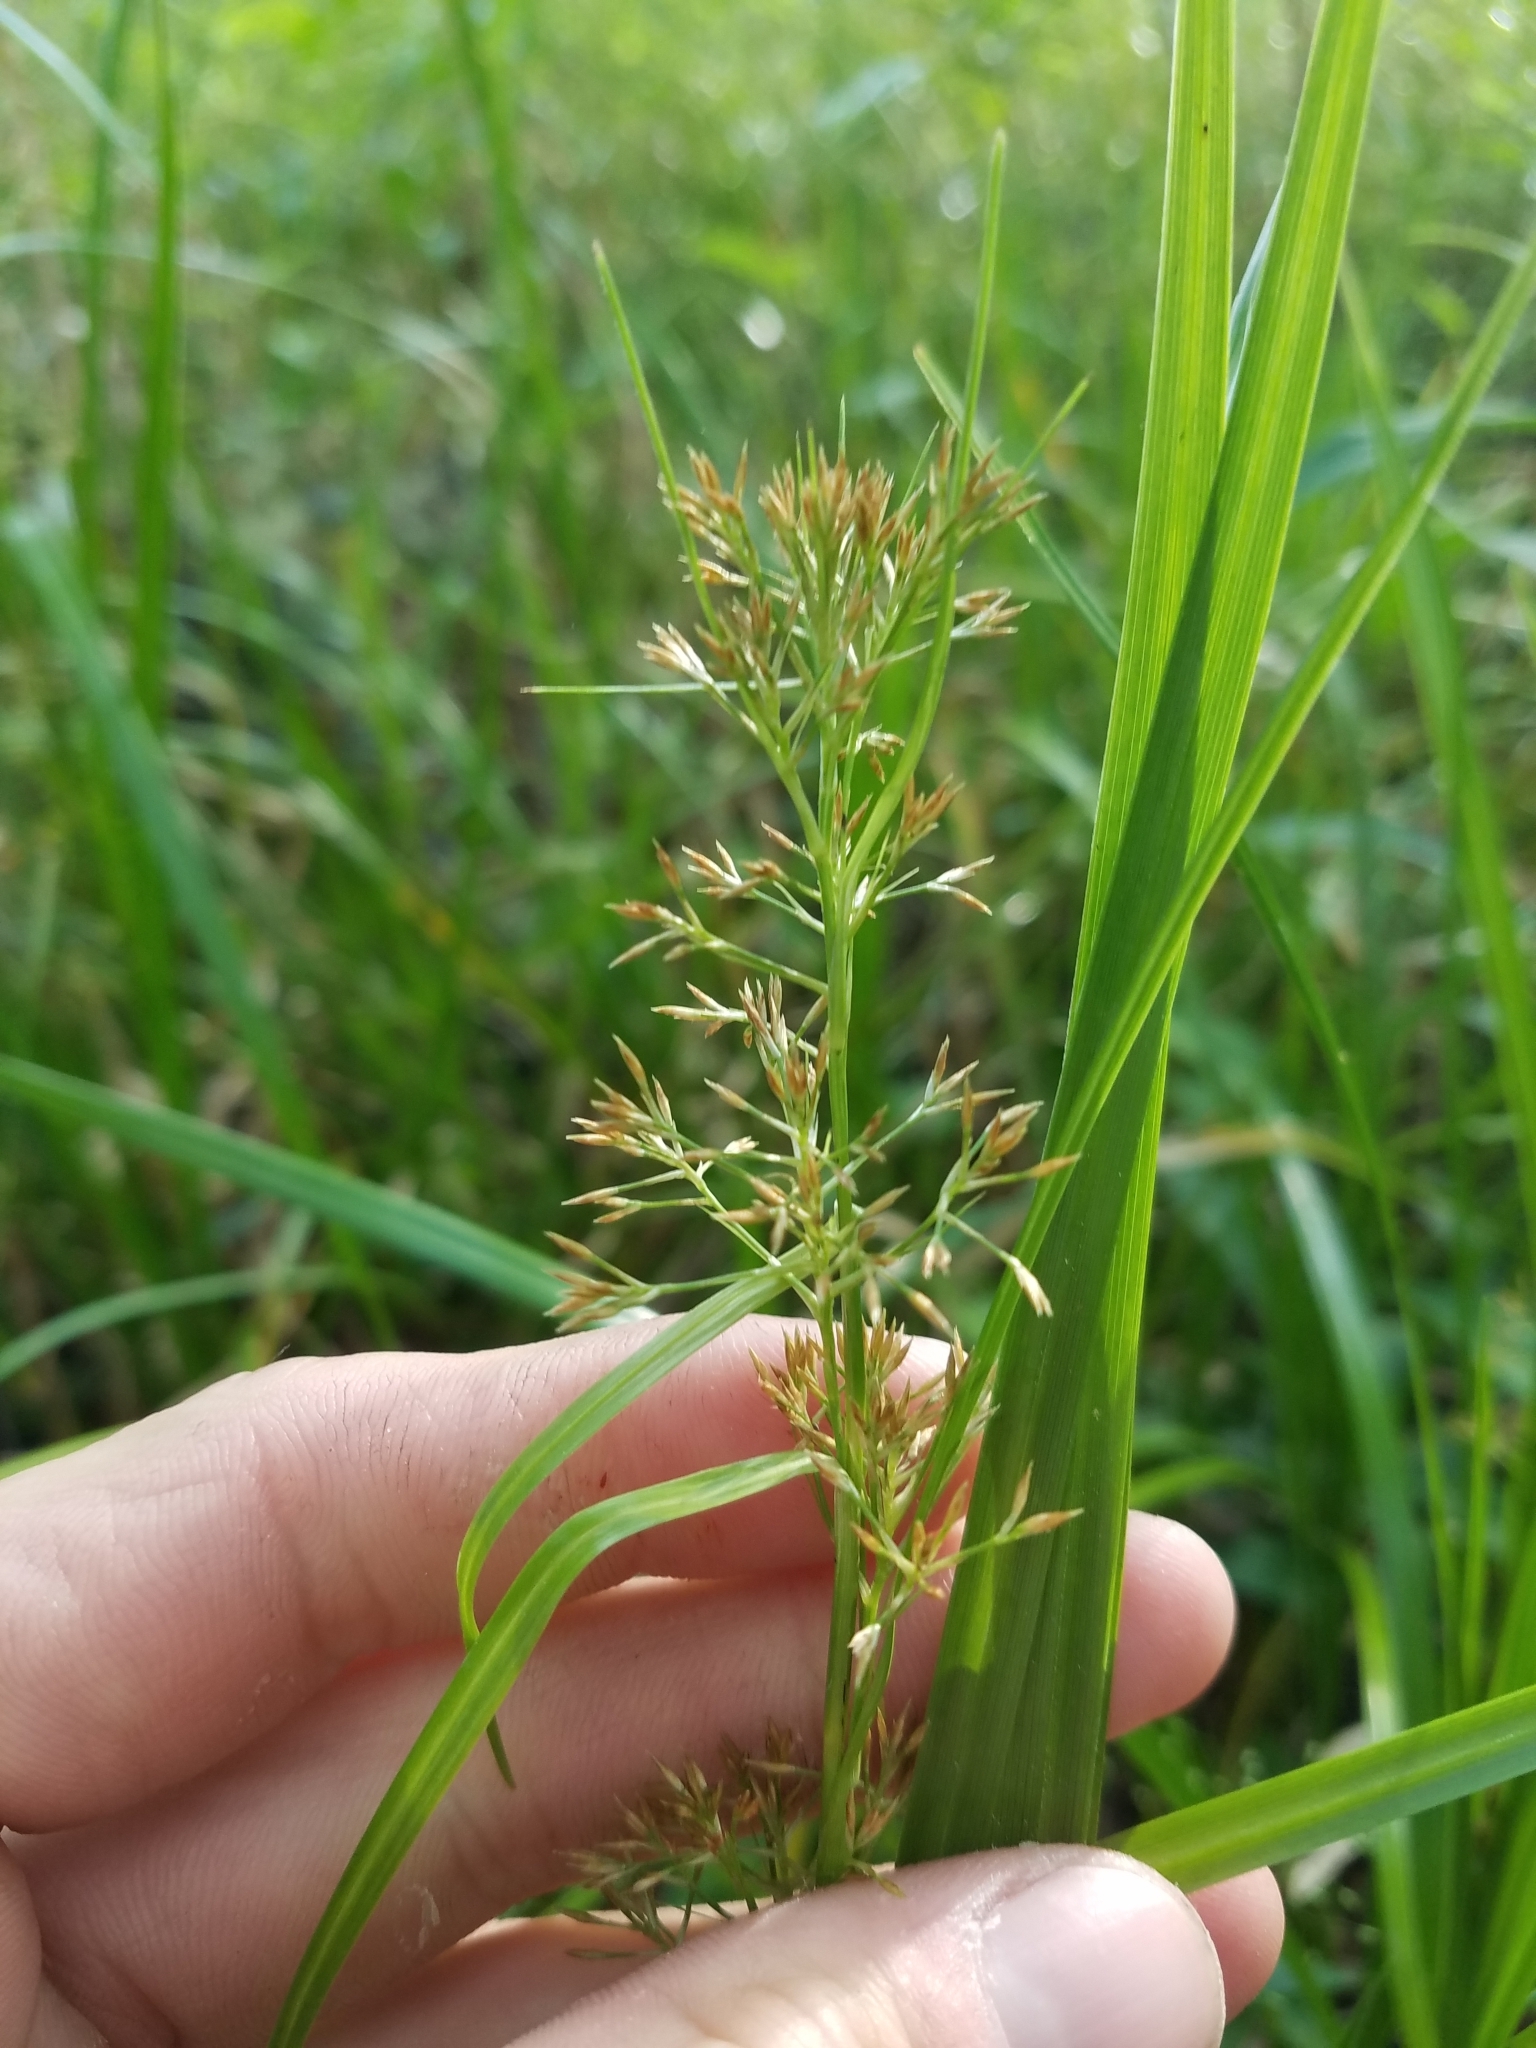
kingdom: Plantae
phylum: Tracheophyta
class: Liliopsida
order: Poales
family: Cyperaceae
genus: Rhynchospora
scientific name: Rhynchospora miliacea
